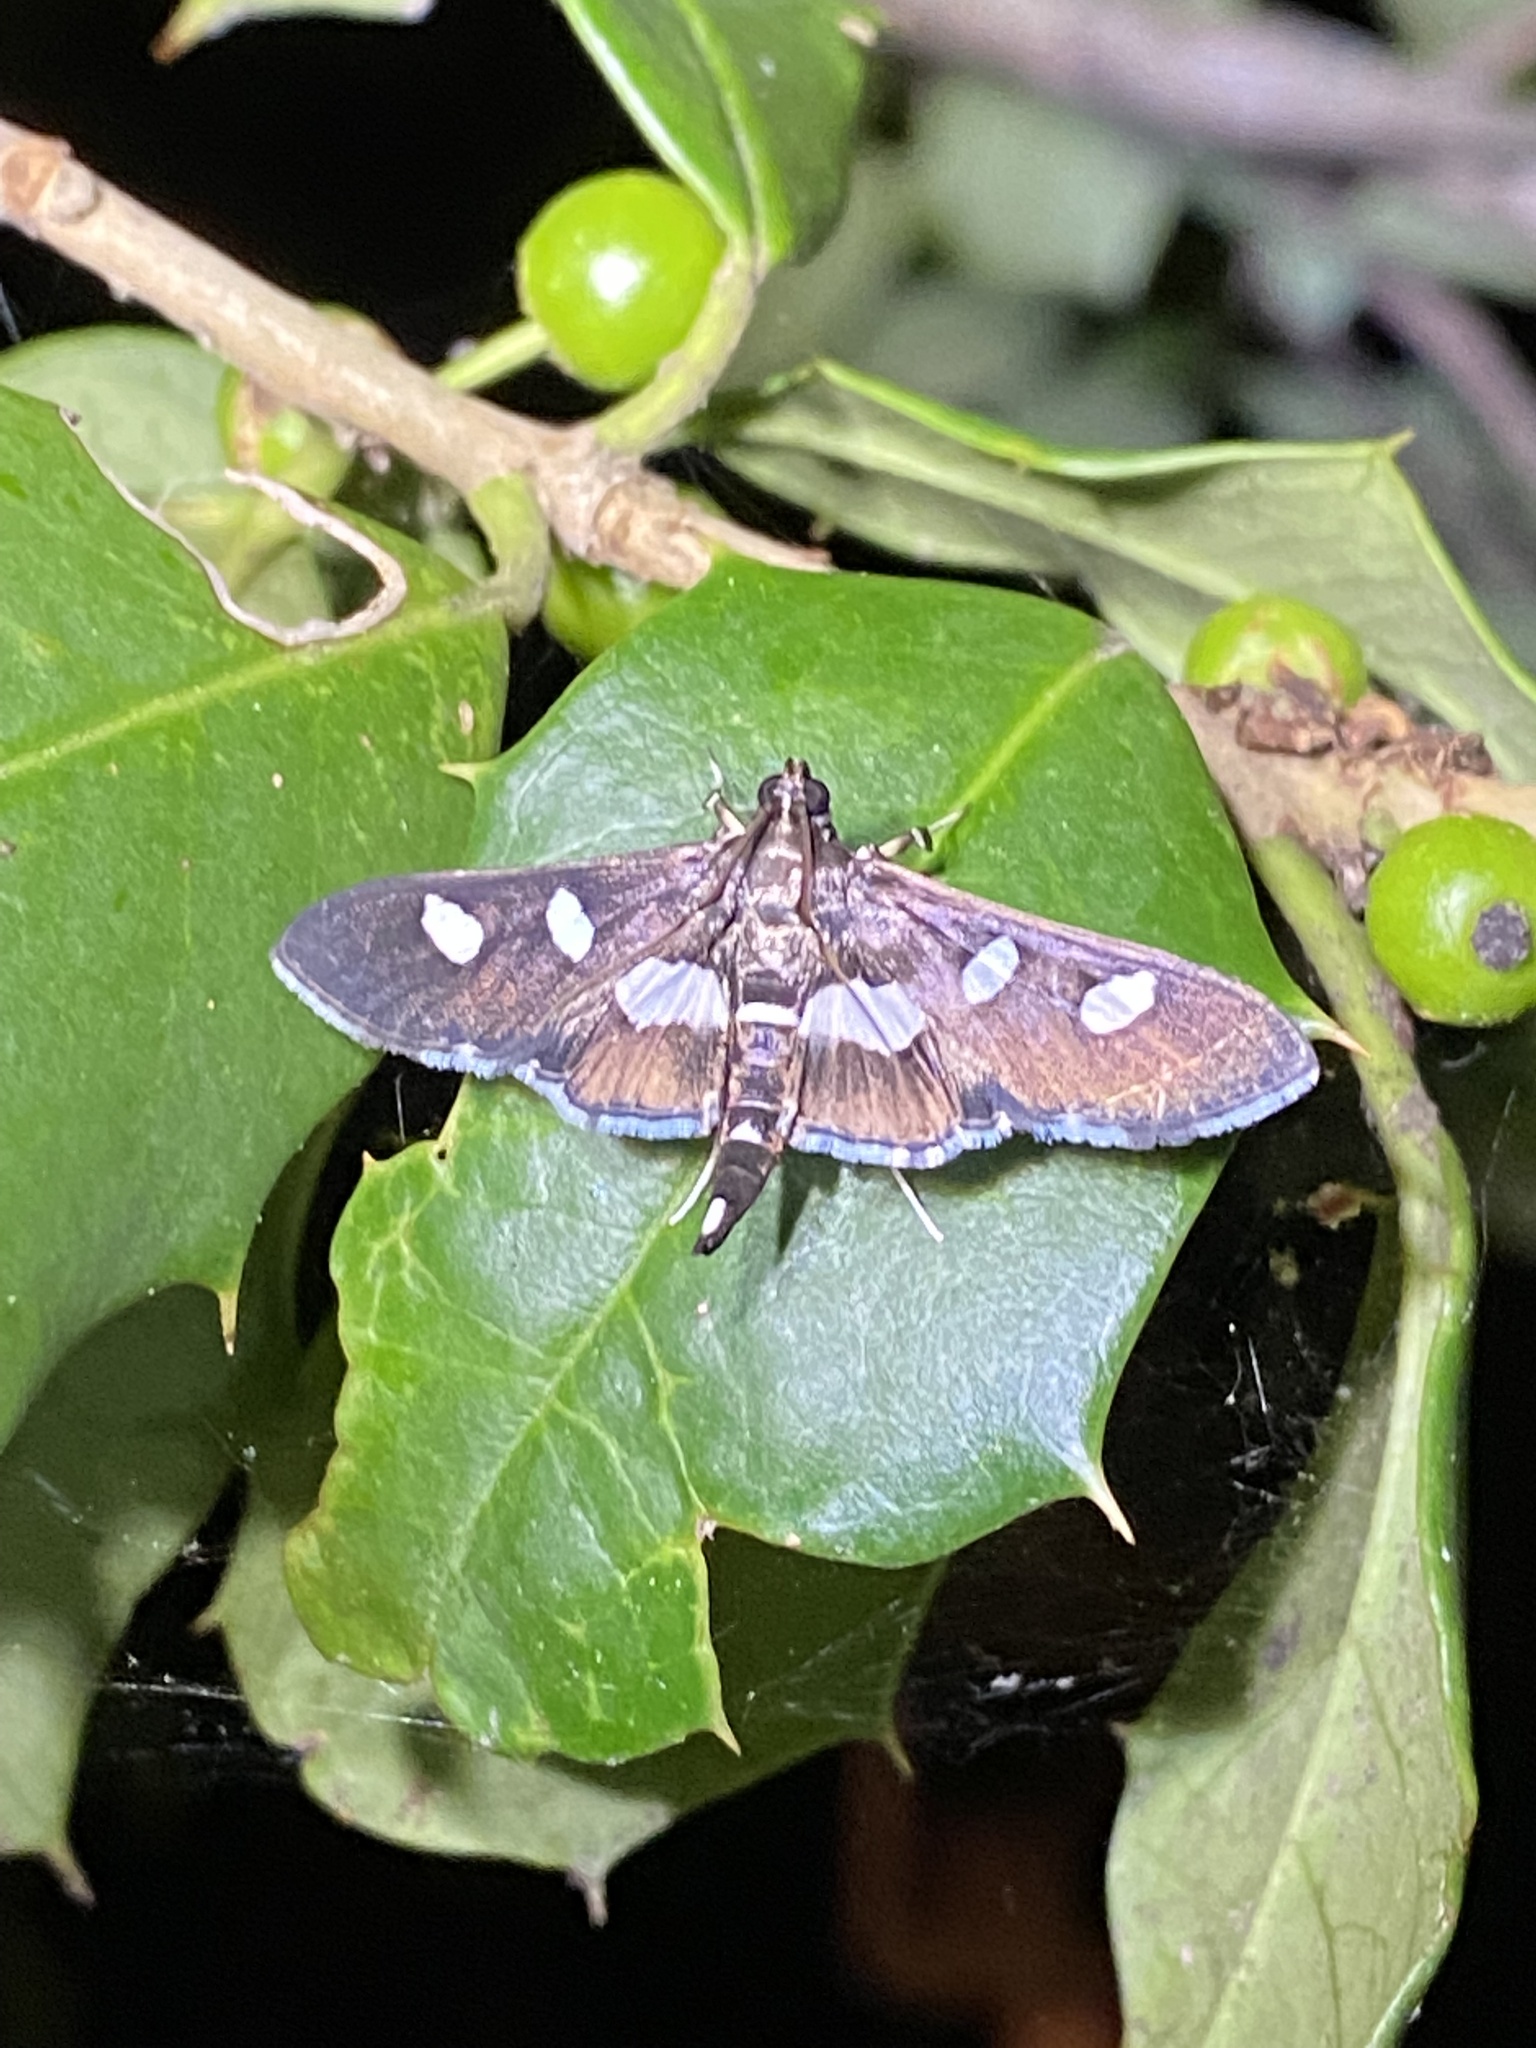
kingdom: Animalia
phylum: Arthropoda
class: Insecta
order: Lepidoptera
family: Crambidae
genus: Desmia
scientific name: Desmia
